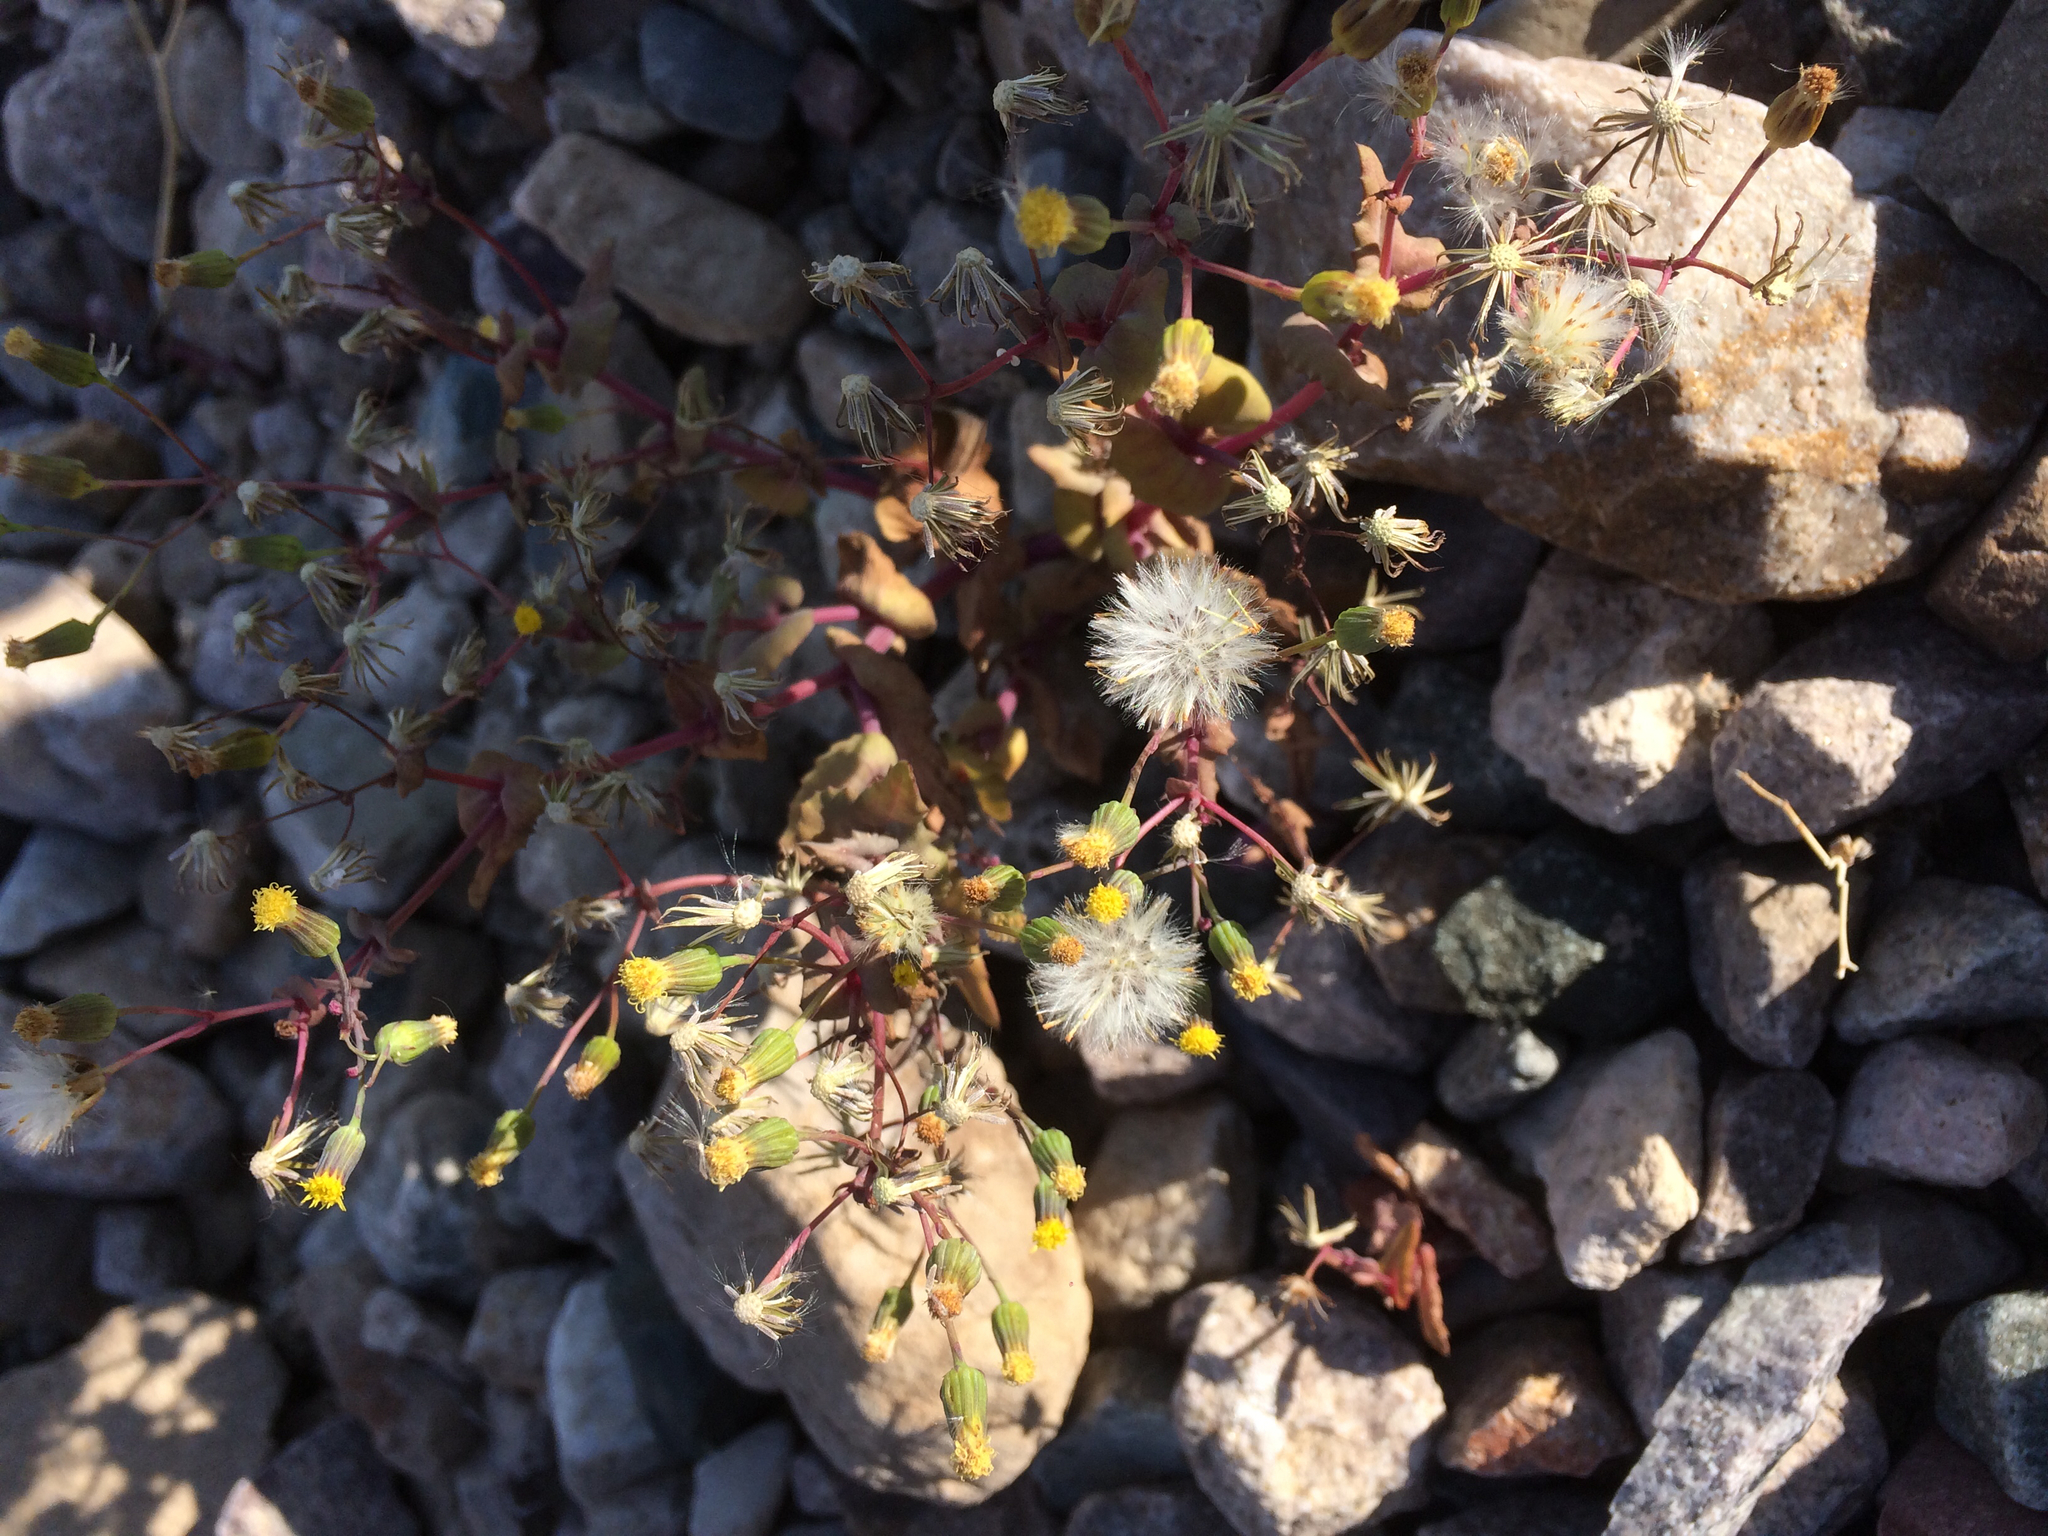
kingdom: Plantae
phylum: Tracheophyta
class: Magnoliopsida
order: Asterales
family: Asteraceae
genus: Senecio
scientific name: Senecio mohavensis
